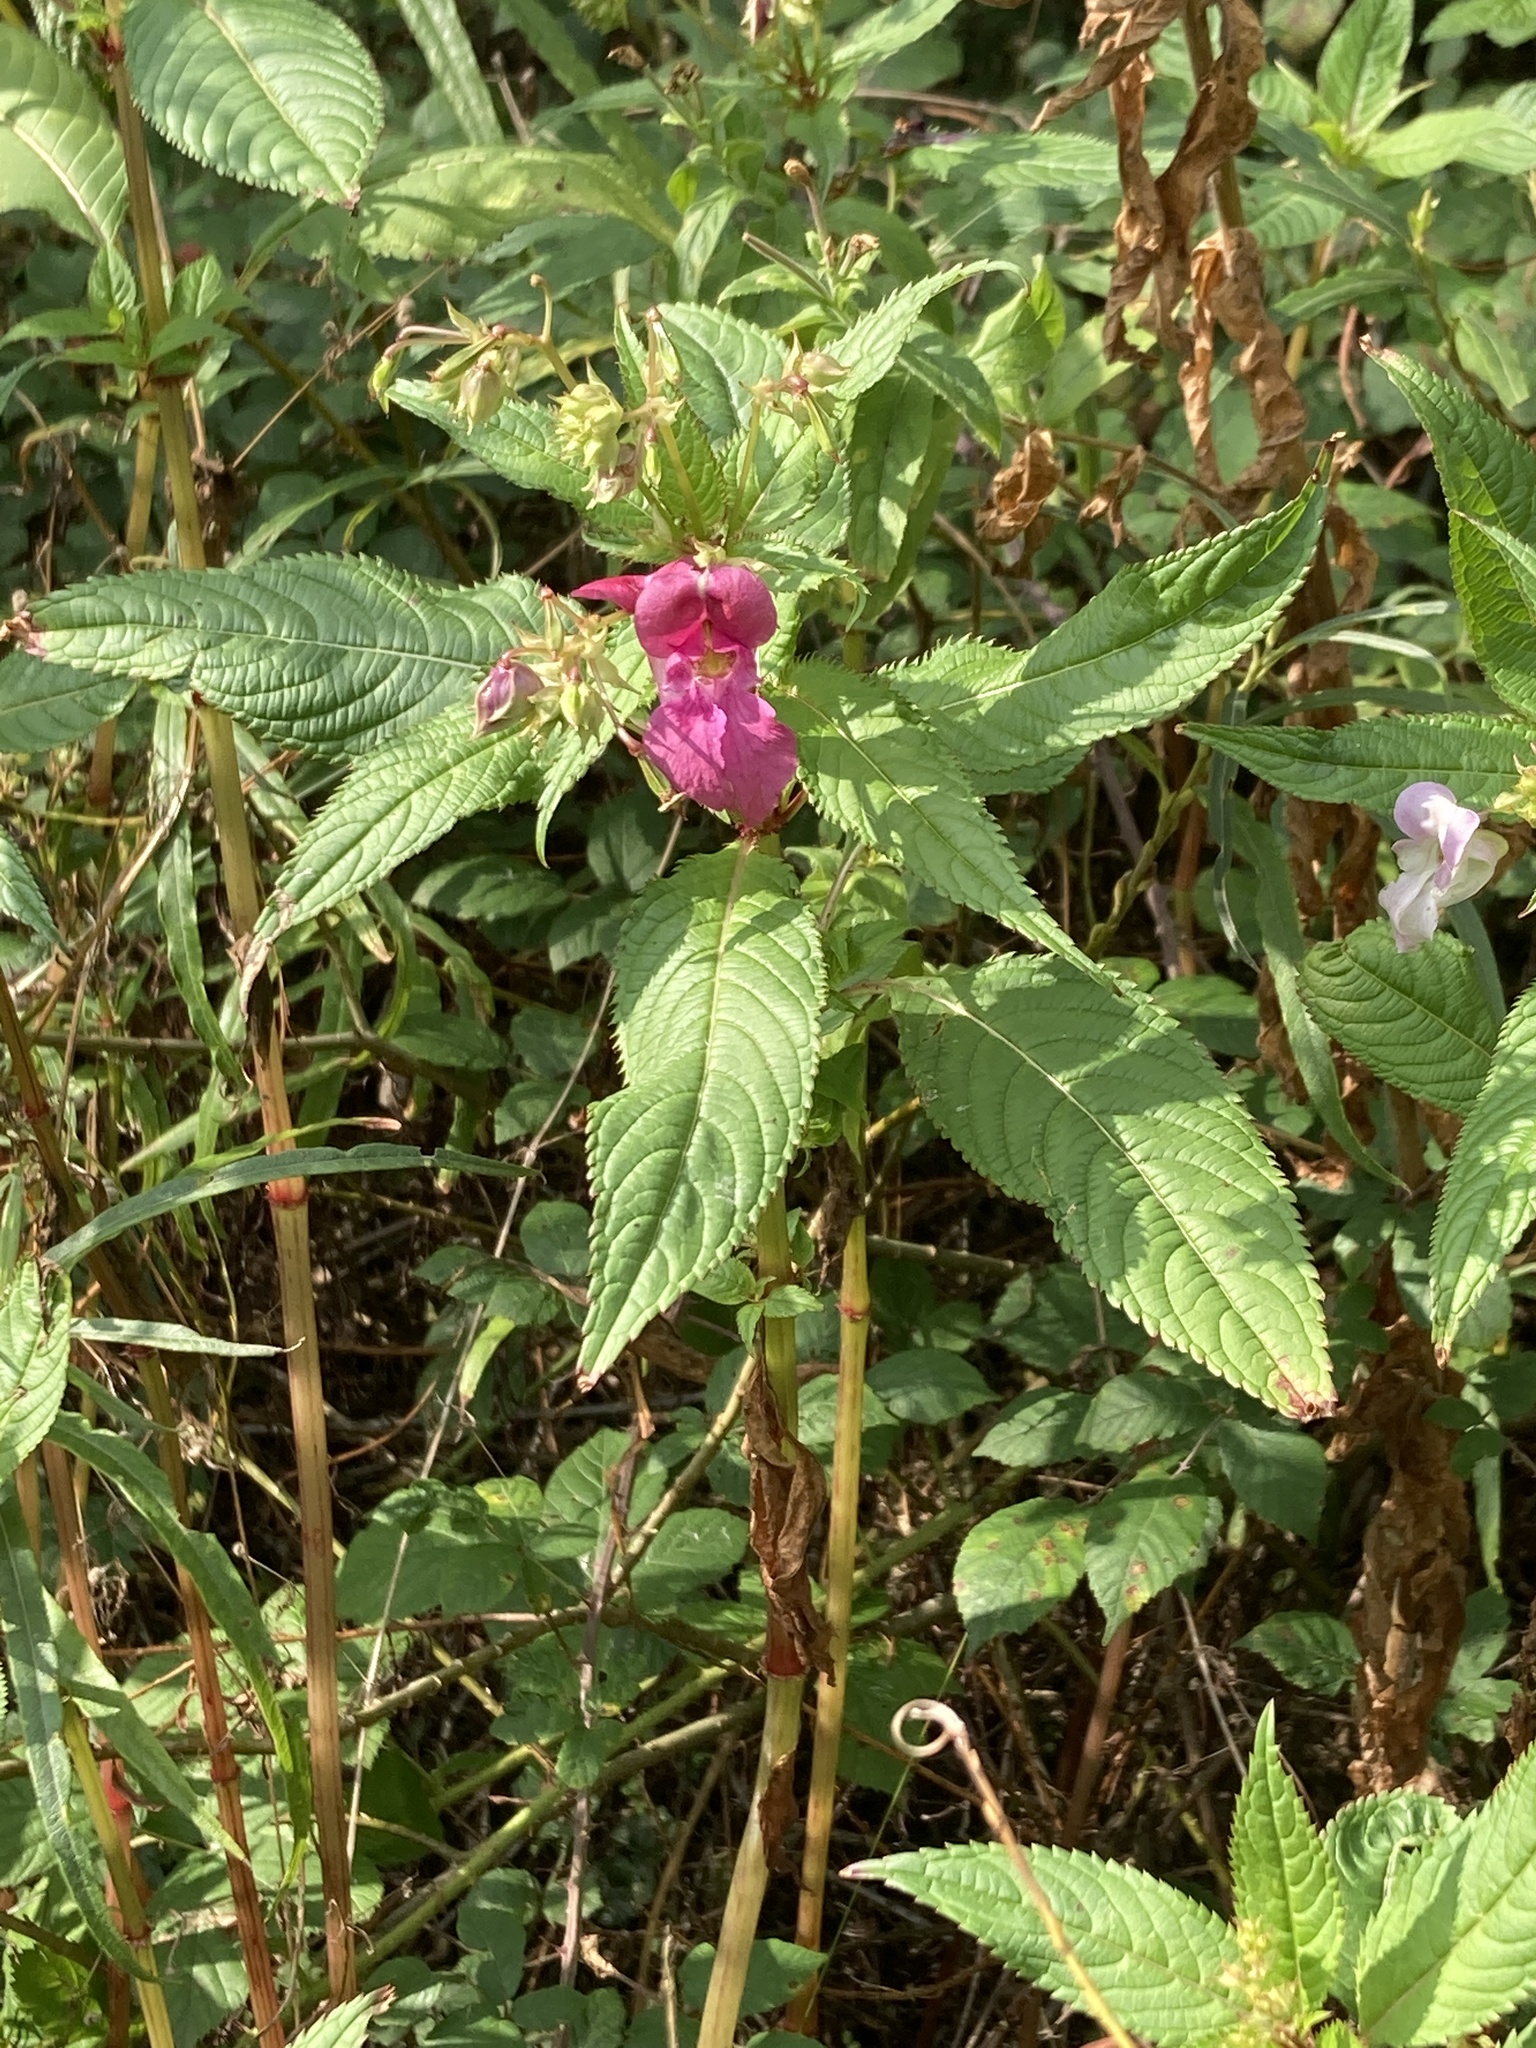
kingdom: Plantae
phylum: Tracheophyta
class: Magnoliopsida
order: Ericales
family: Balsaminaceae
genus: Impatiens
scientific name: Impatiens glandulifera
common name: Himalayan balsam
